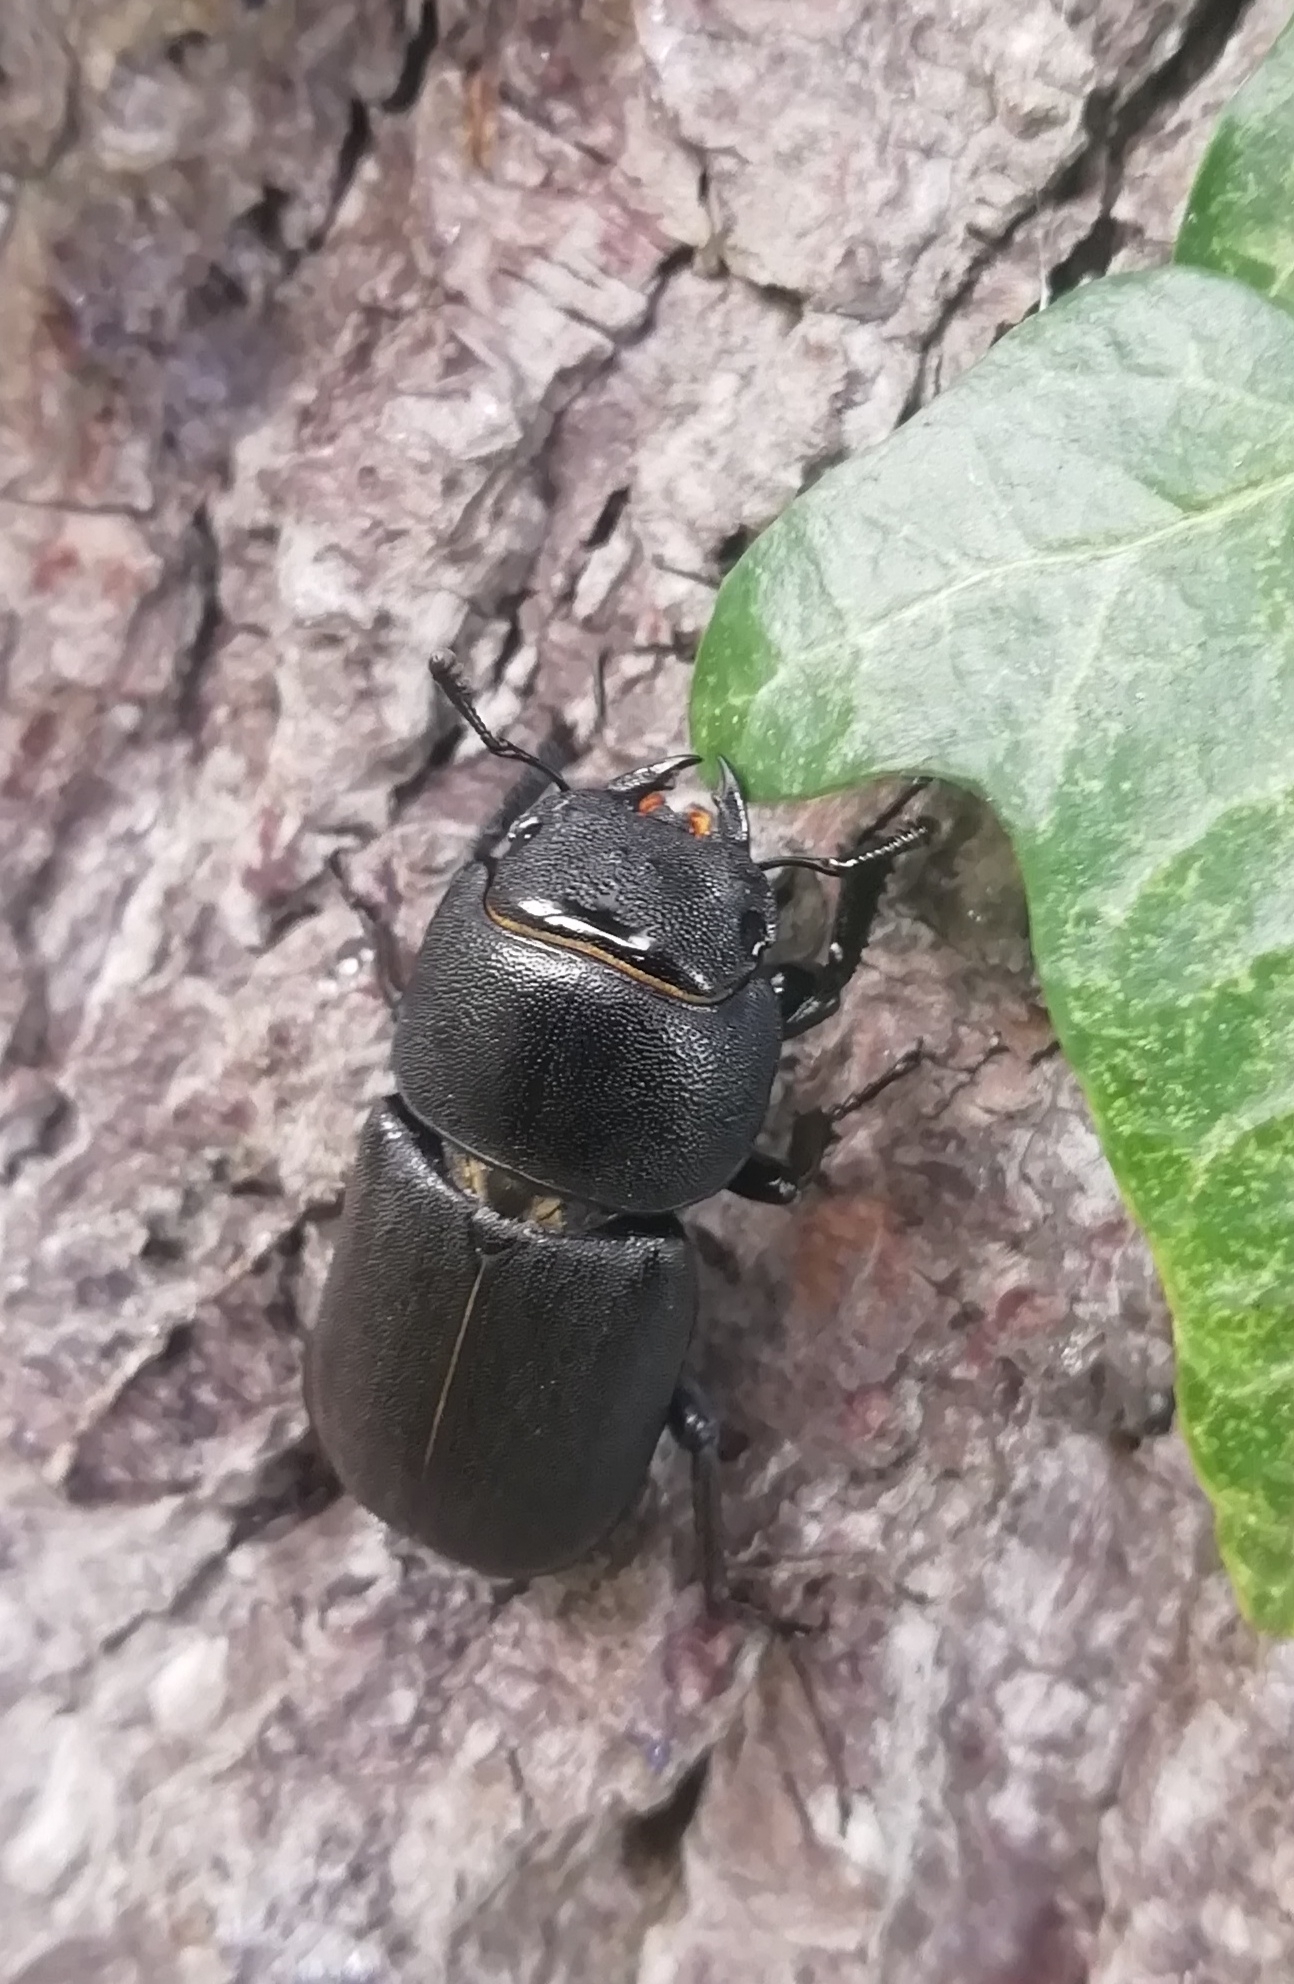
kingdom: Animalia
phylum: Arthropoda
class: Insecta
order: Coleoptera
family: Lucanidae
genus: Dorcus
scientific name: Dorcus parallelipipedus
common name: Lesser stag beetle
